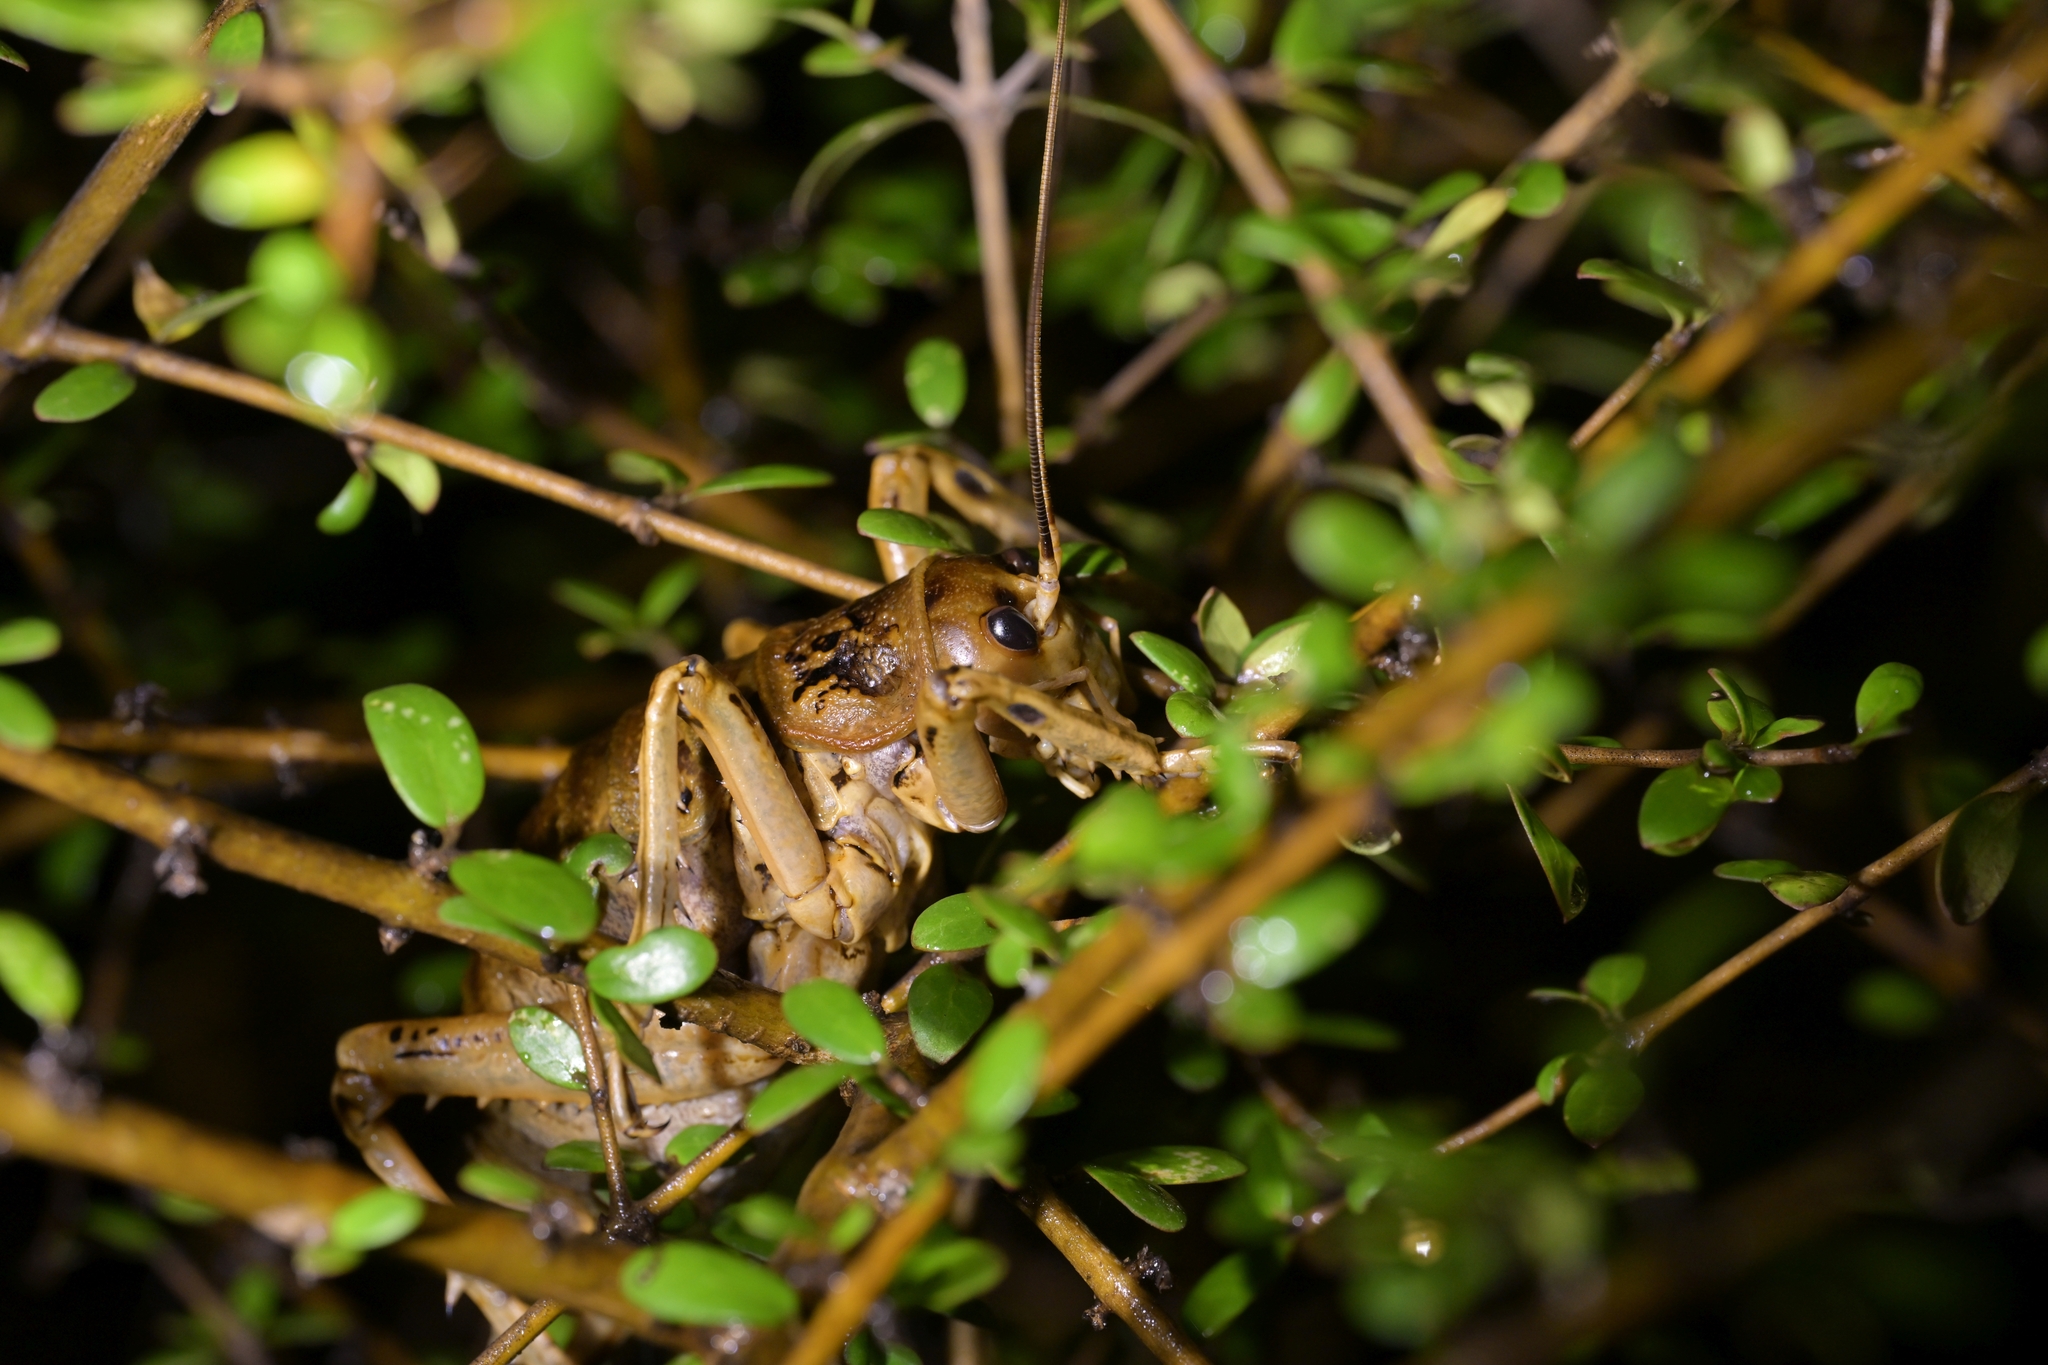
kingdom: Animalia
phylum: Arthropoda
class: Insecta
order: Orthoptera
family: Anostostomatidae
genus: Deinacrida
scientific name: Deinacrida rugosa
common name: Stephens island weta
